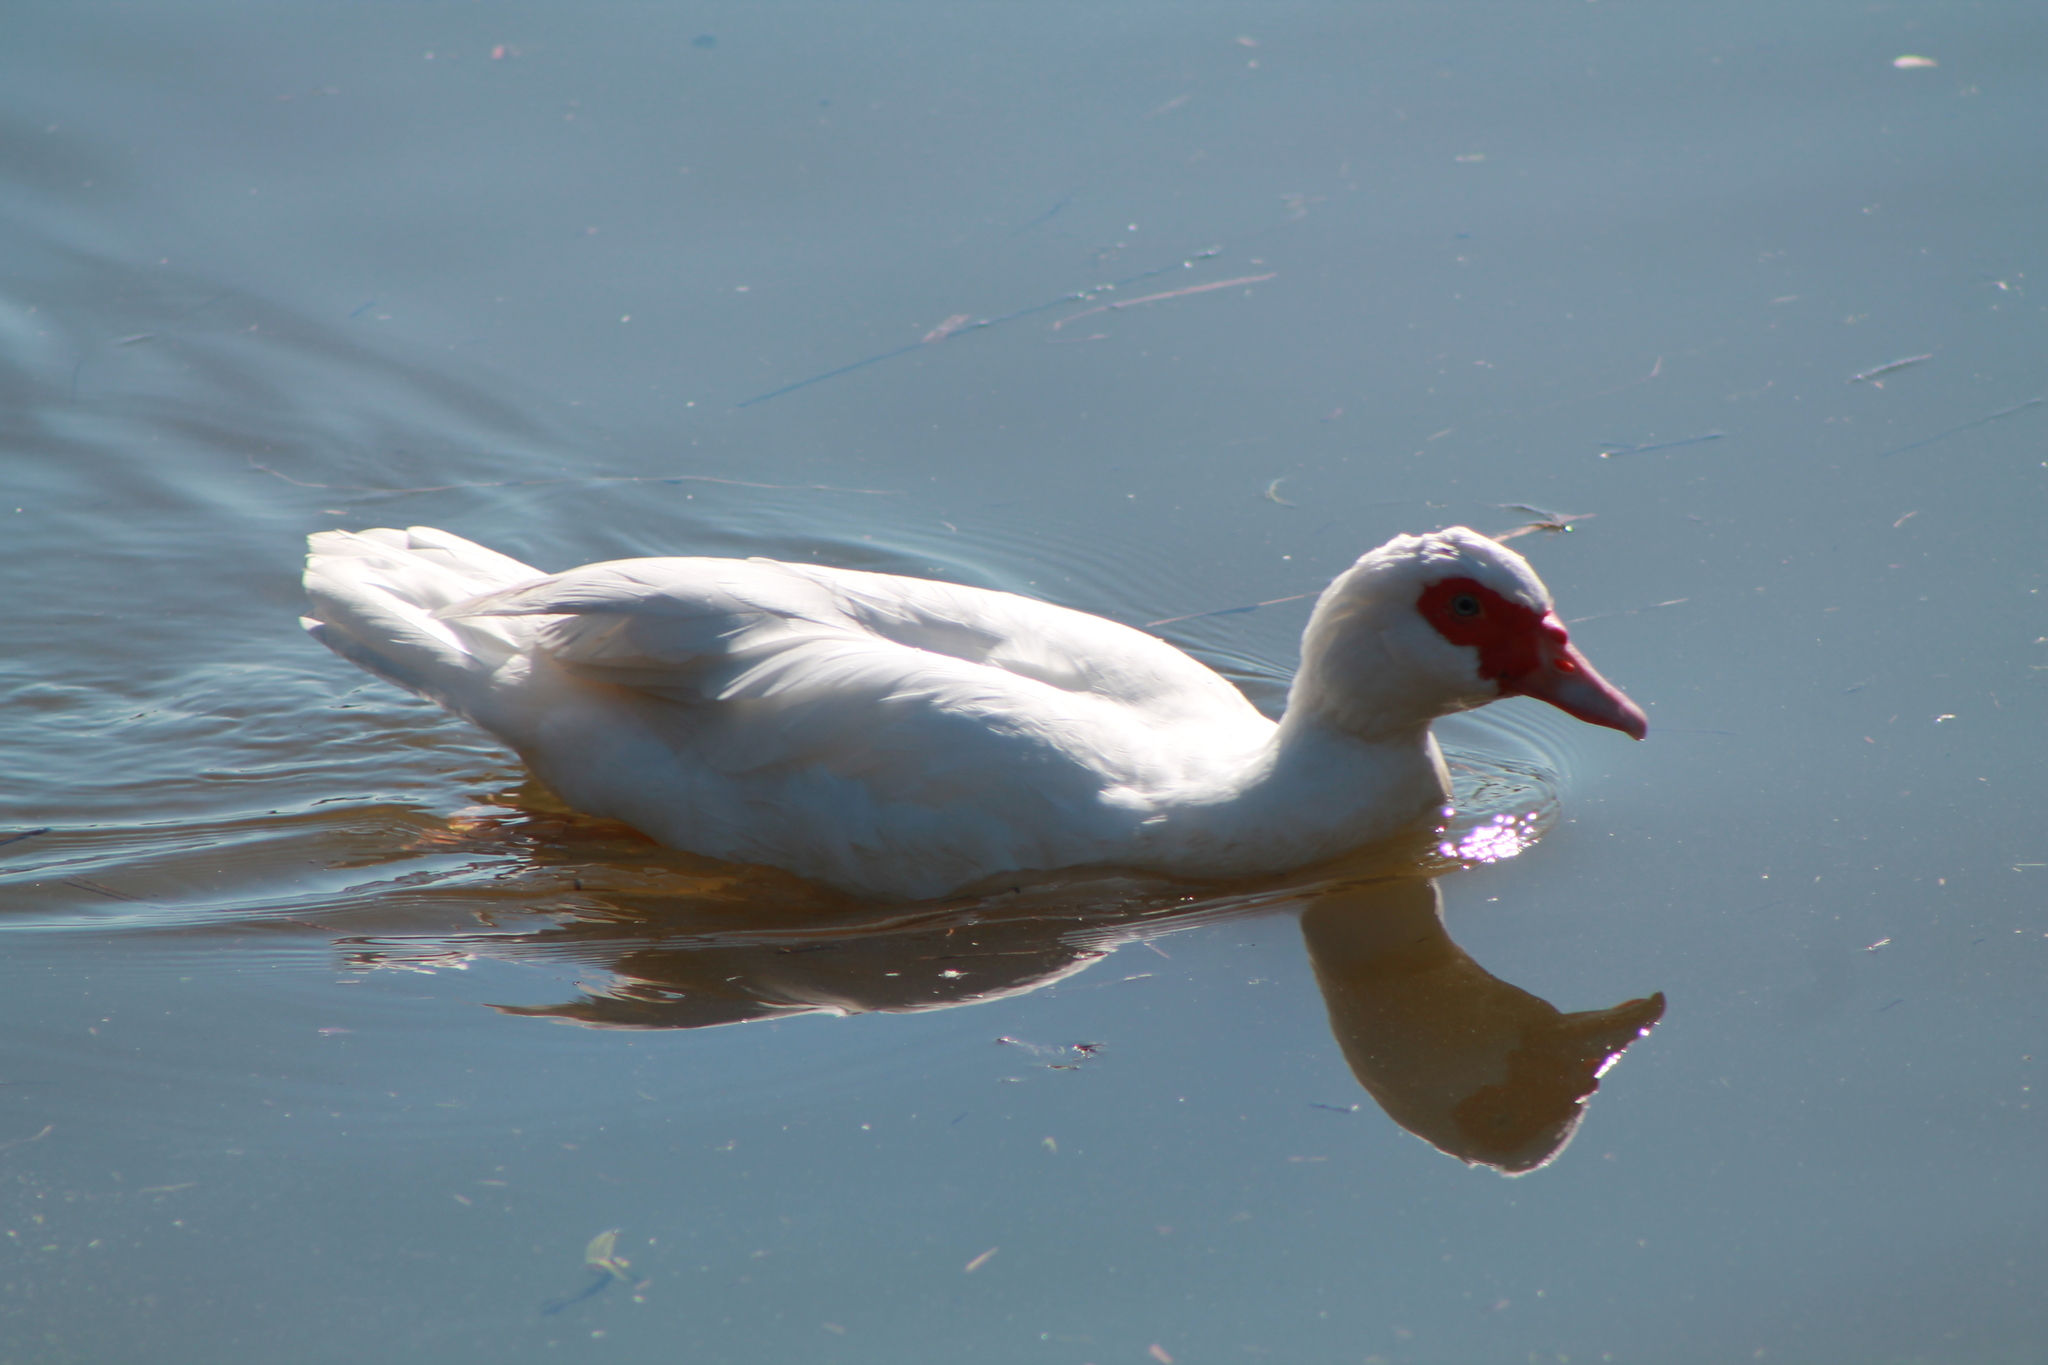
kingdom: Animalia
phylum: Chordata
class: Aves
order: Anseriformes
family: Anatidae
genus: Cairina
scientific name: Cairina moschata
